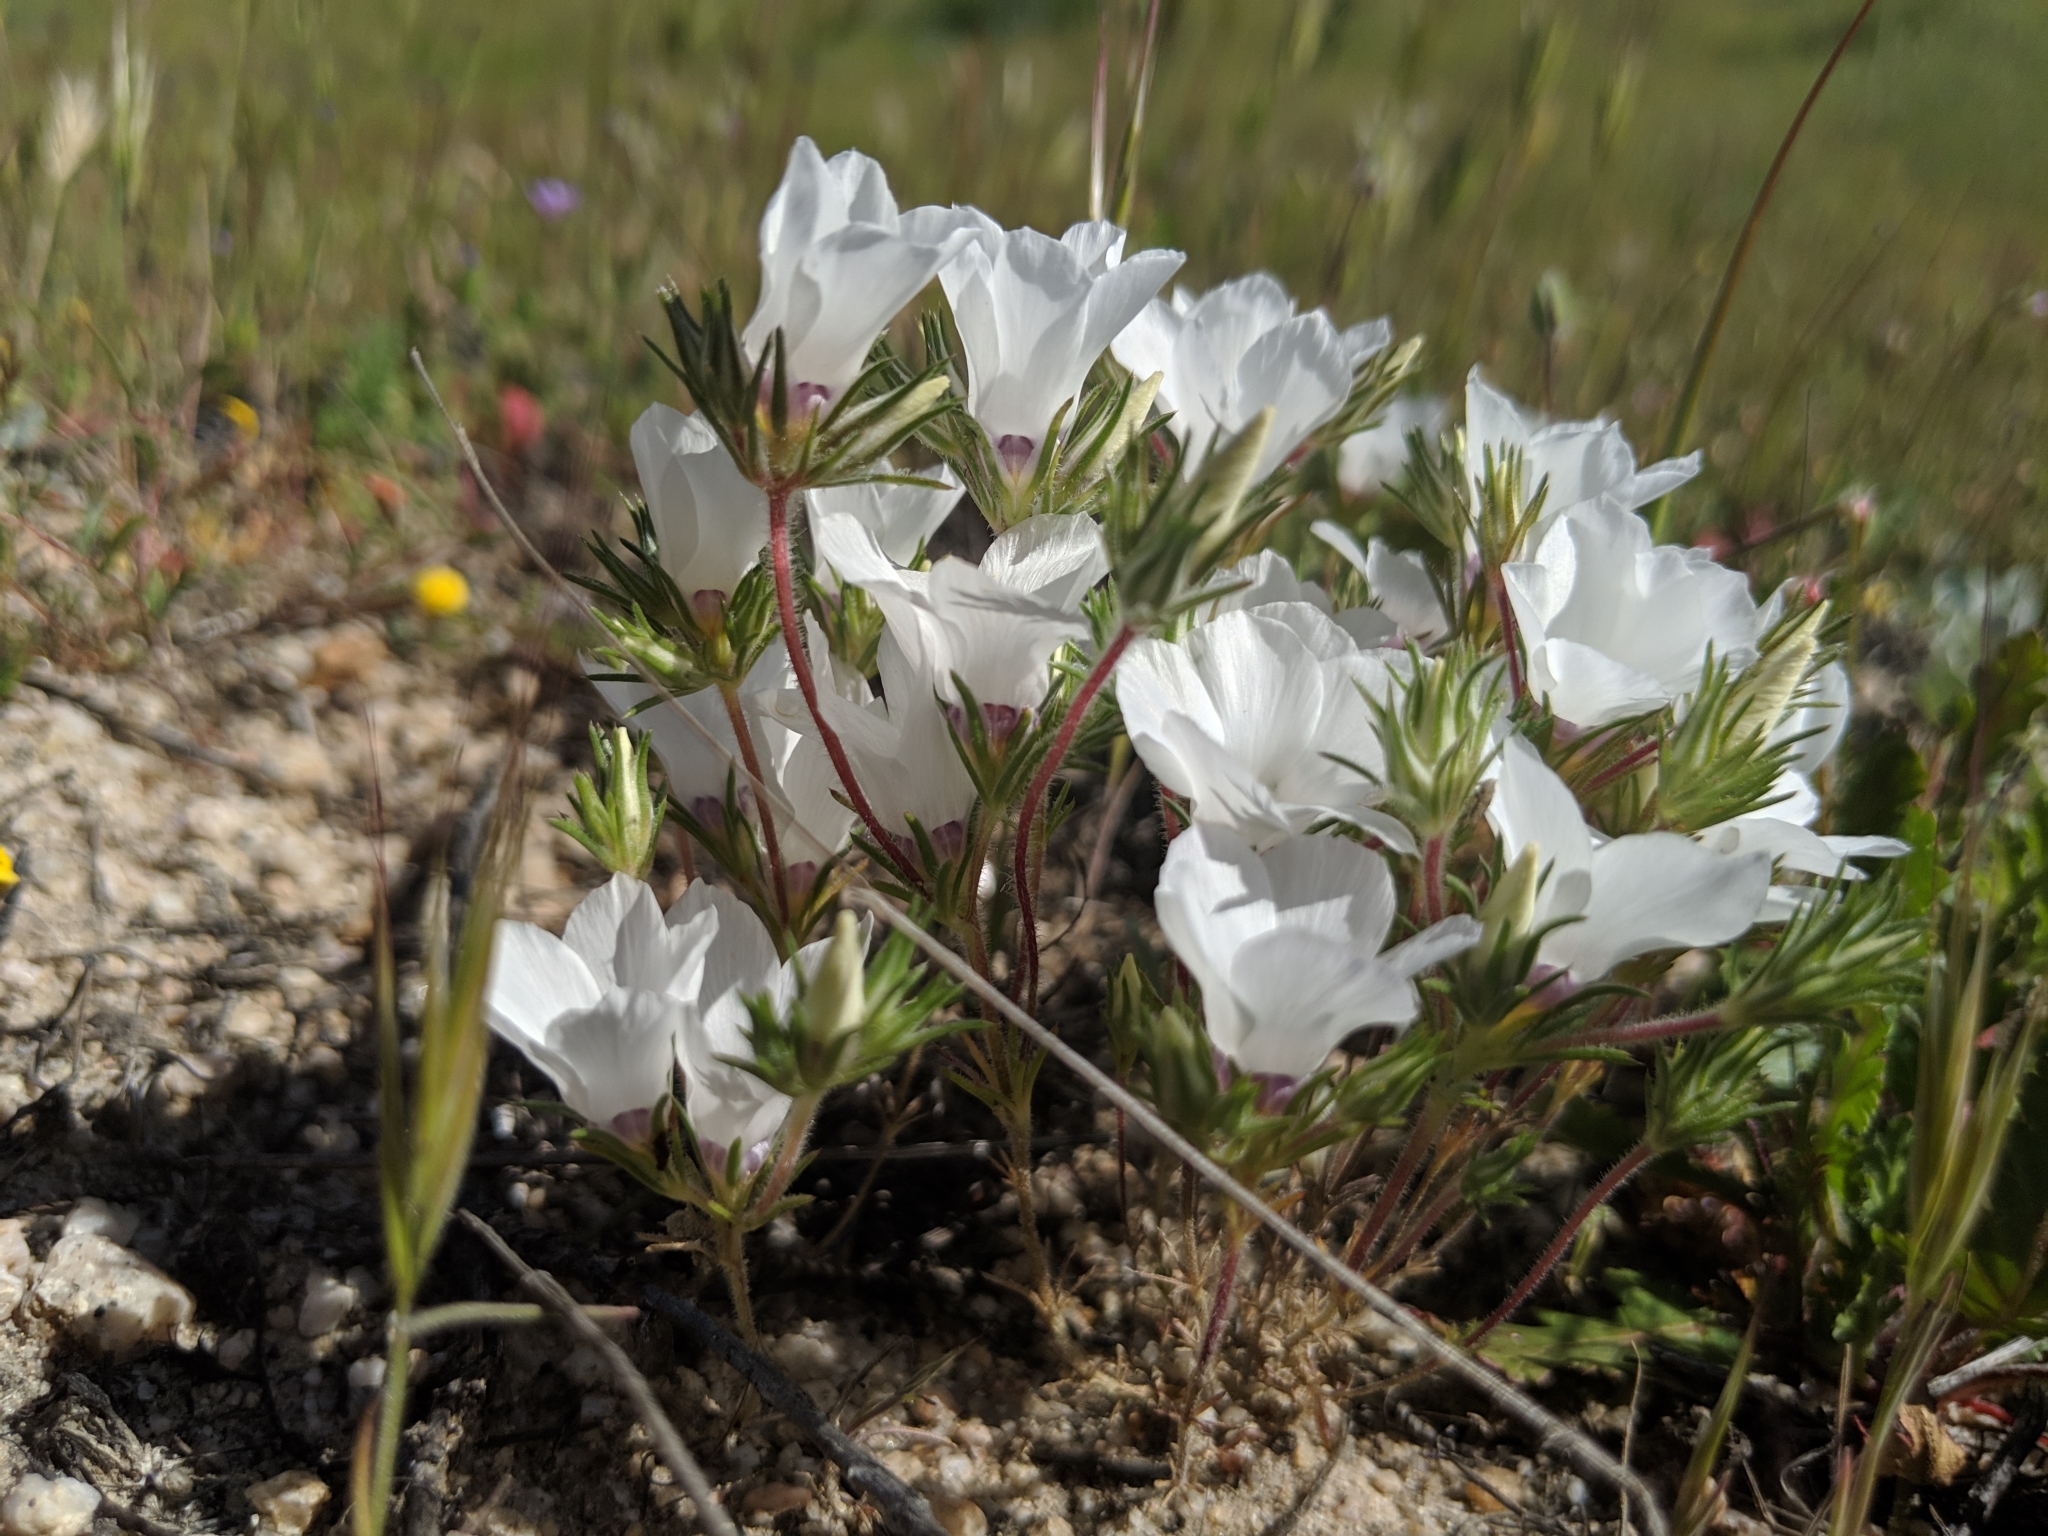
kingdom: Plantae
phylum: Tracheophyta
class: Magnoliopsida
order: Ericales
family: Polemoniaceae
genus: Linanthus
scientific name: Linanthus parryae
